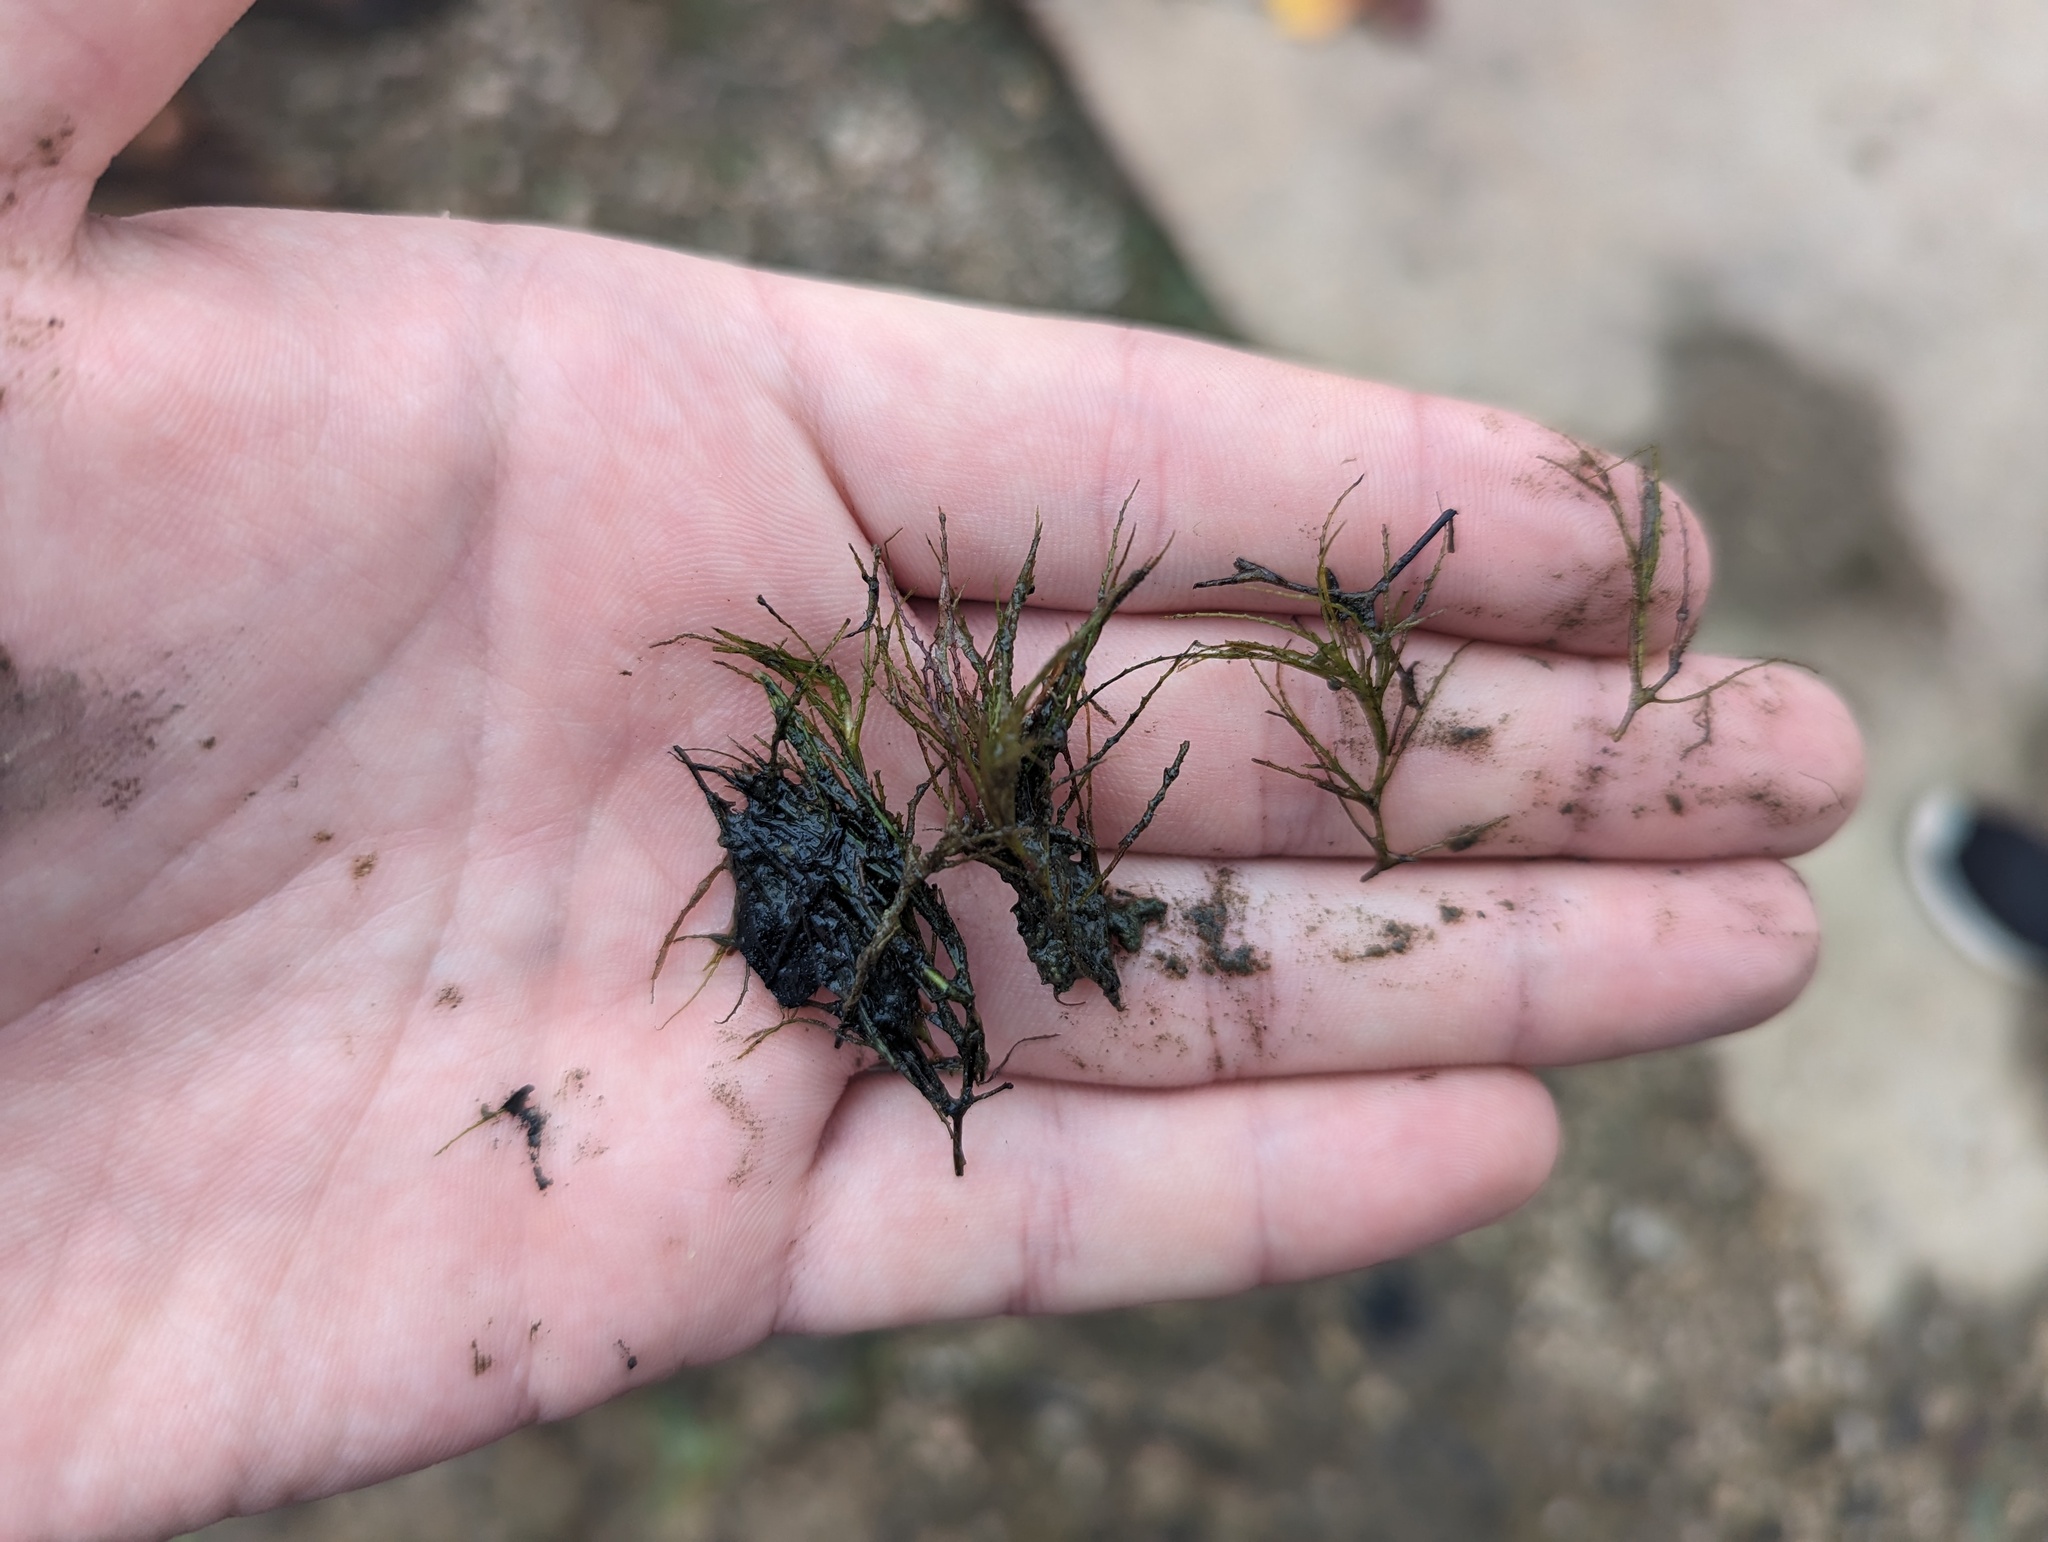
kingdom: Plantae
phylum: Tracheophyta
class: Liliopsida
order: Alismatales
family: Hydrocharitaceae
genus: Najas
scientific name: Najas minor
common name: Brittle naiad
